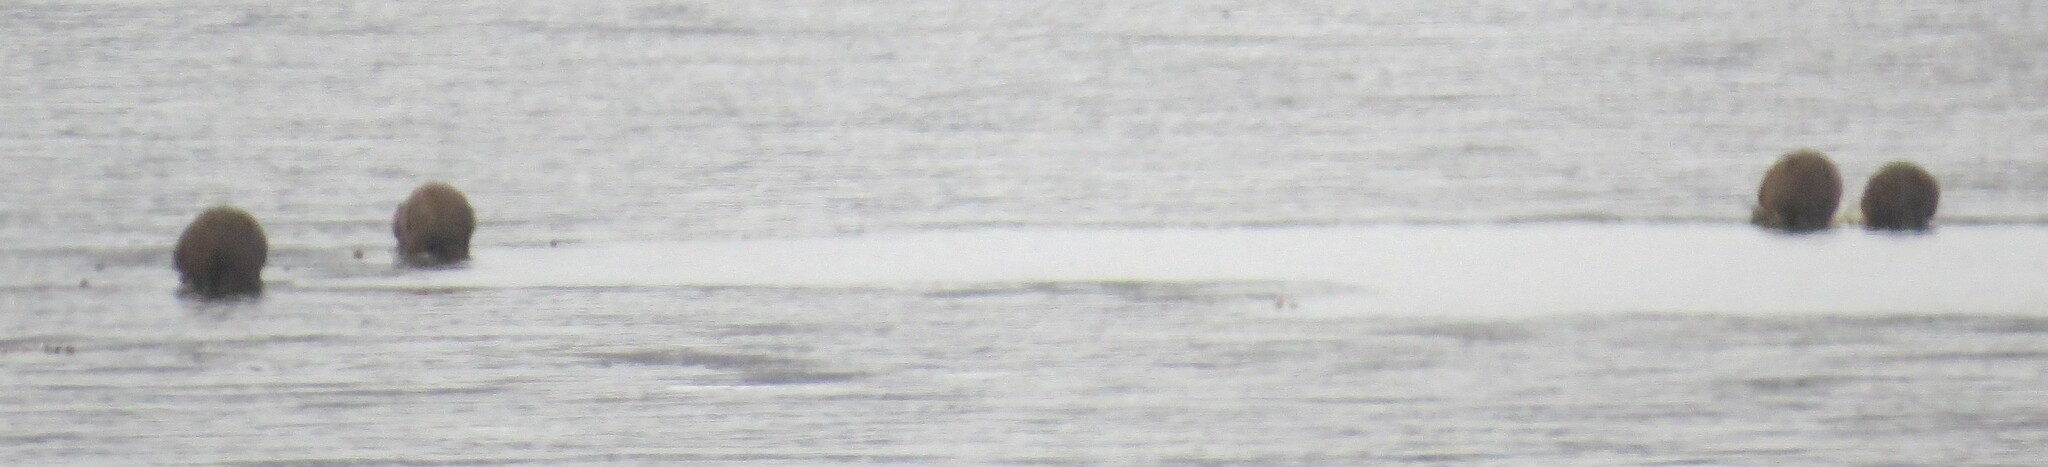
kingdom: Animalia
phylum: Chordata
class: Mammalia
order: Rodentia
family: Cricetidae
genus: Ondatra
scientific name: Ondatra zibethicus
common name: Muskrat
